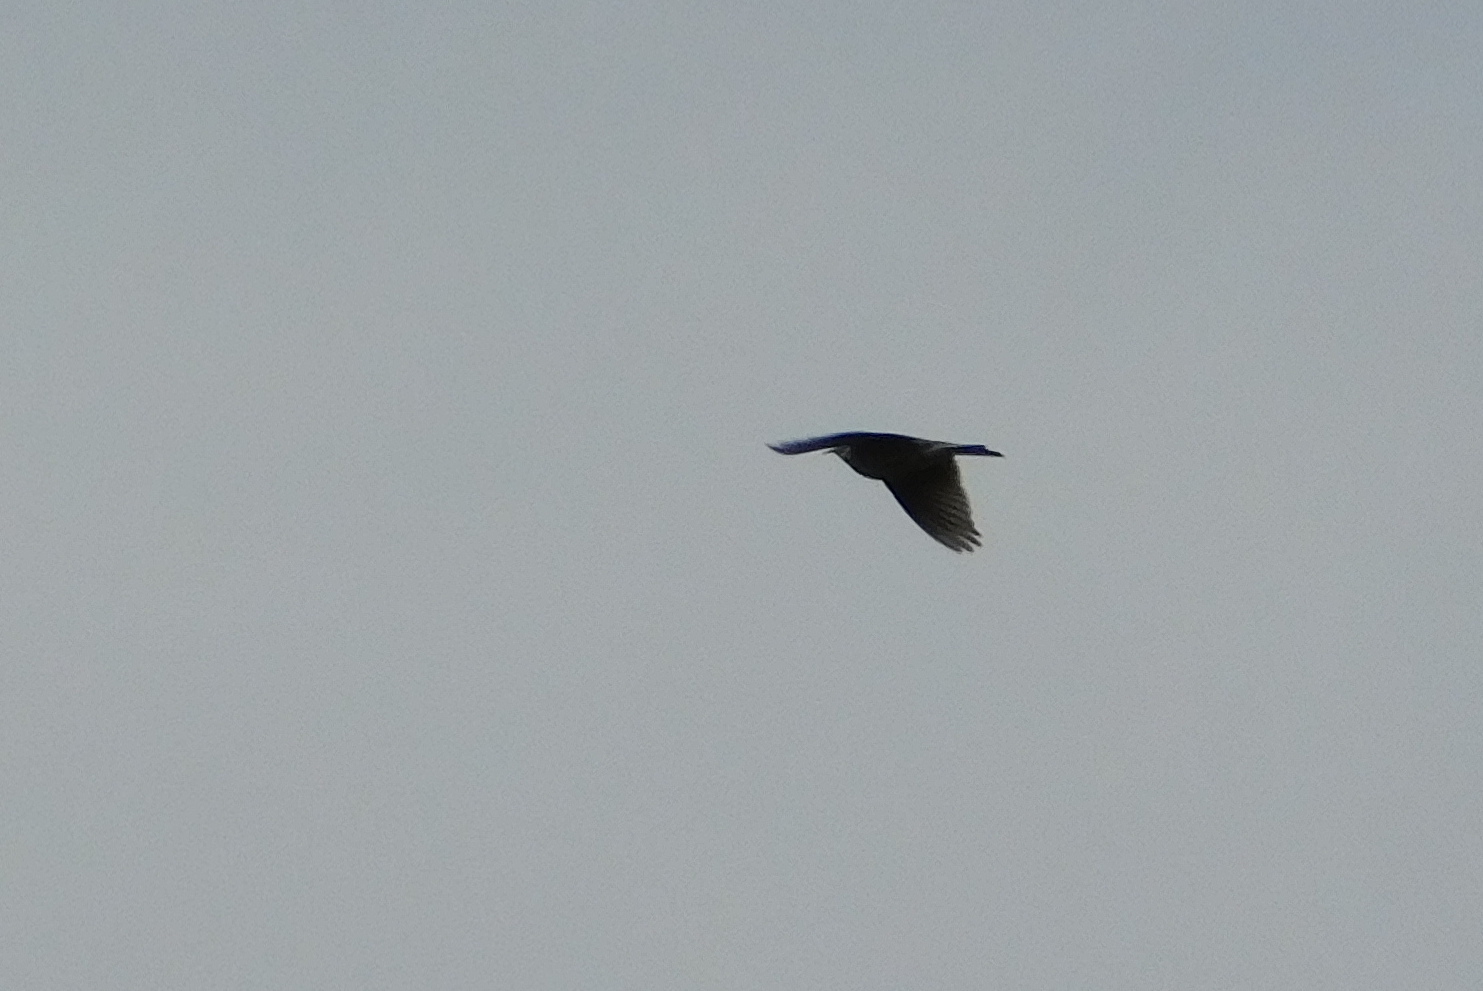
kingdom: Animalia
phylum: Chordata
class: Aves
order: Passeriformes
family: Alaudidae
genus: Alauda
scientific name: Alauda arvensis
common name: Eurasian skylark
